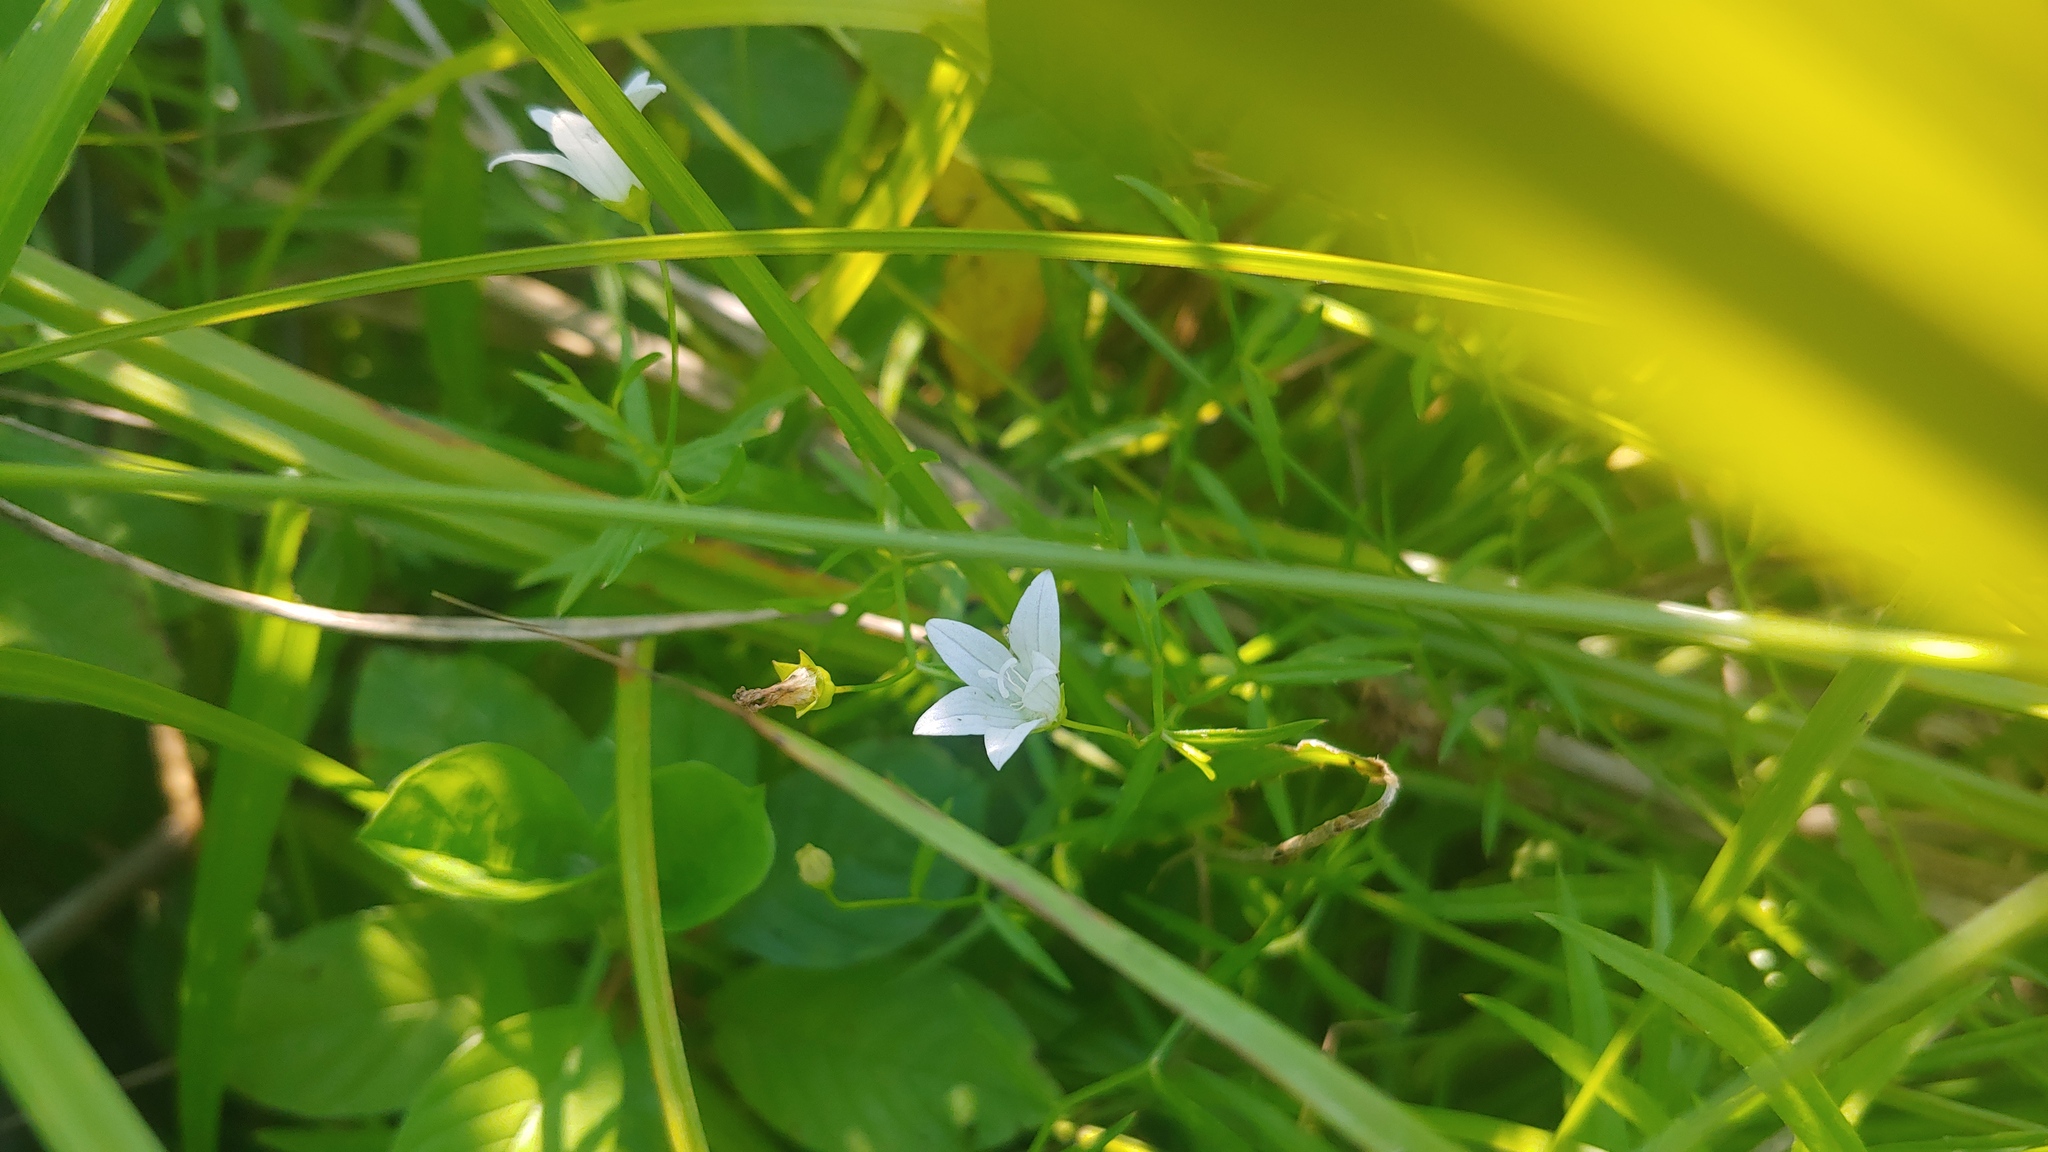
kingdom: Plantae
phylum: Tracheophyta
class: Magnoliopsida
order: Asterales
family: Campanulaceae
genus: Palustricodon
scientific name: Palustricodon aparinoides
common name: Bedstraw bellflower
